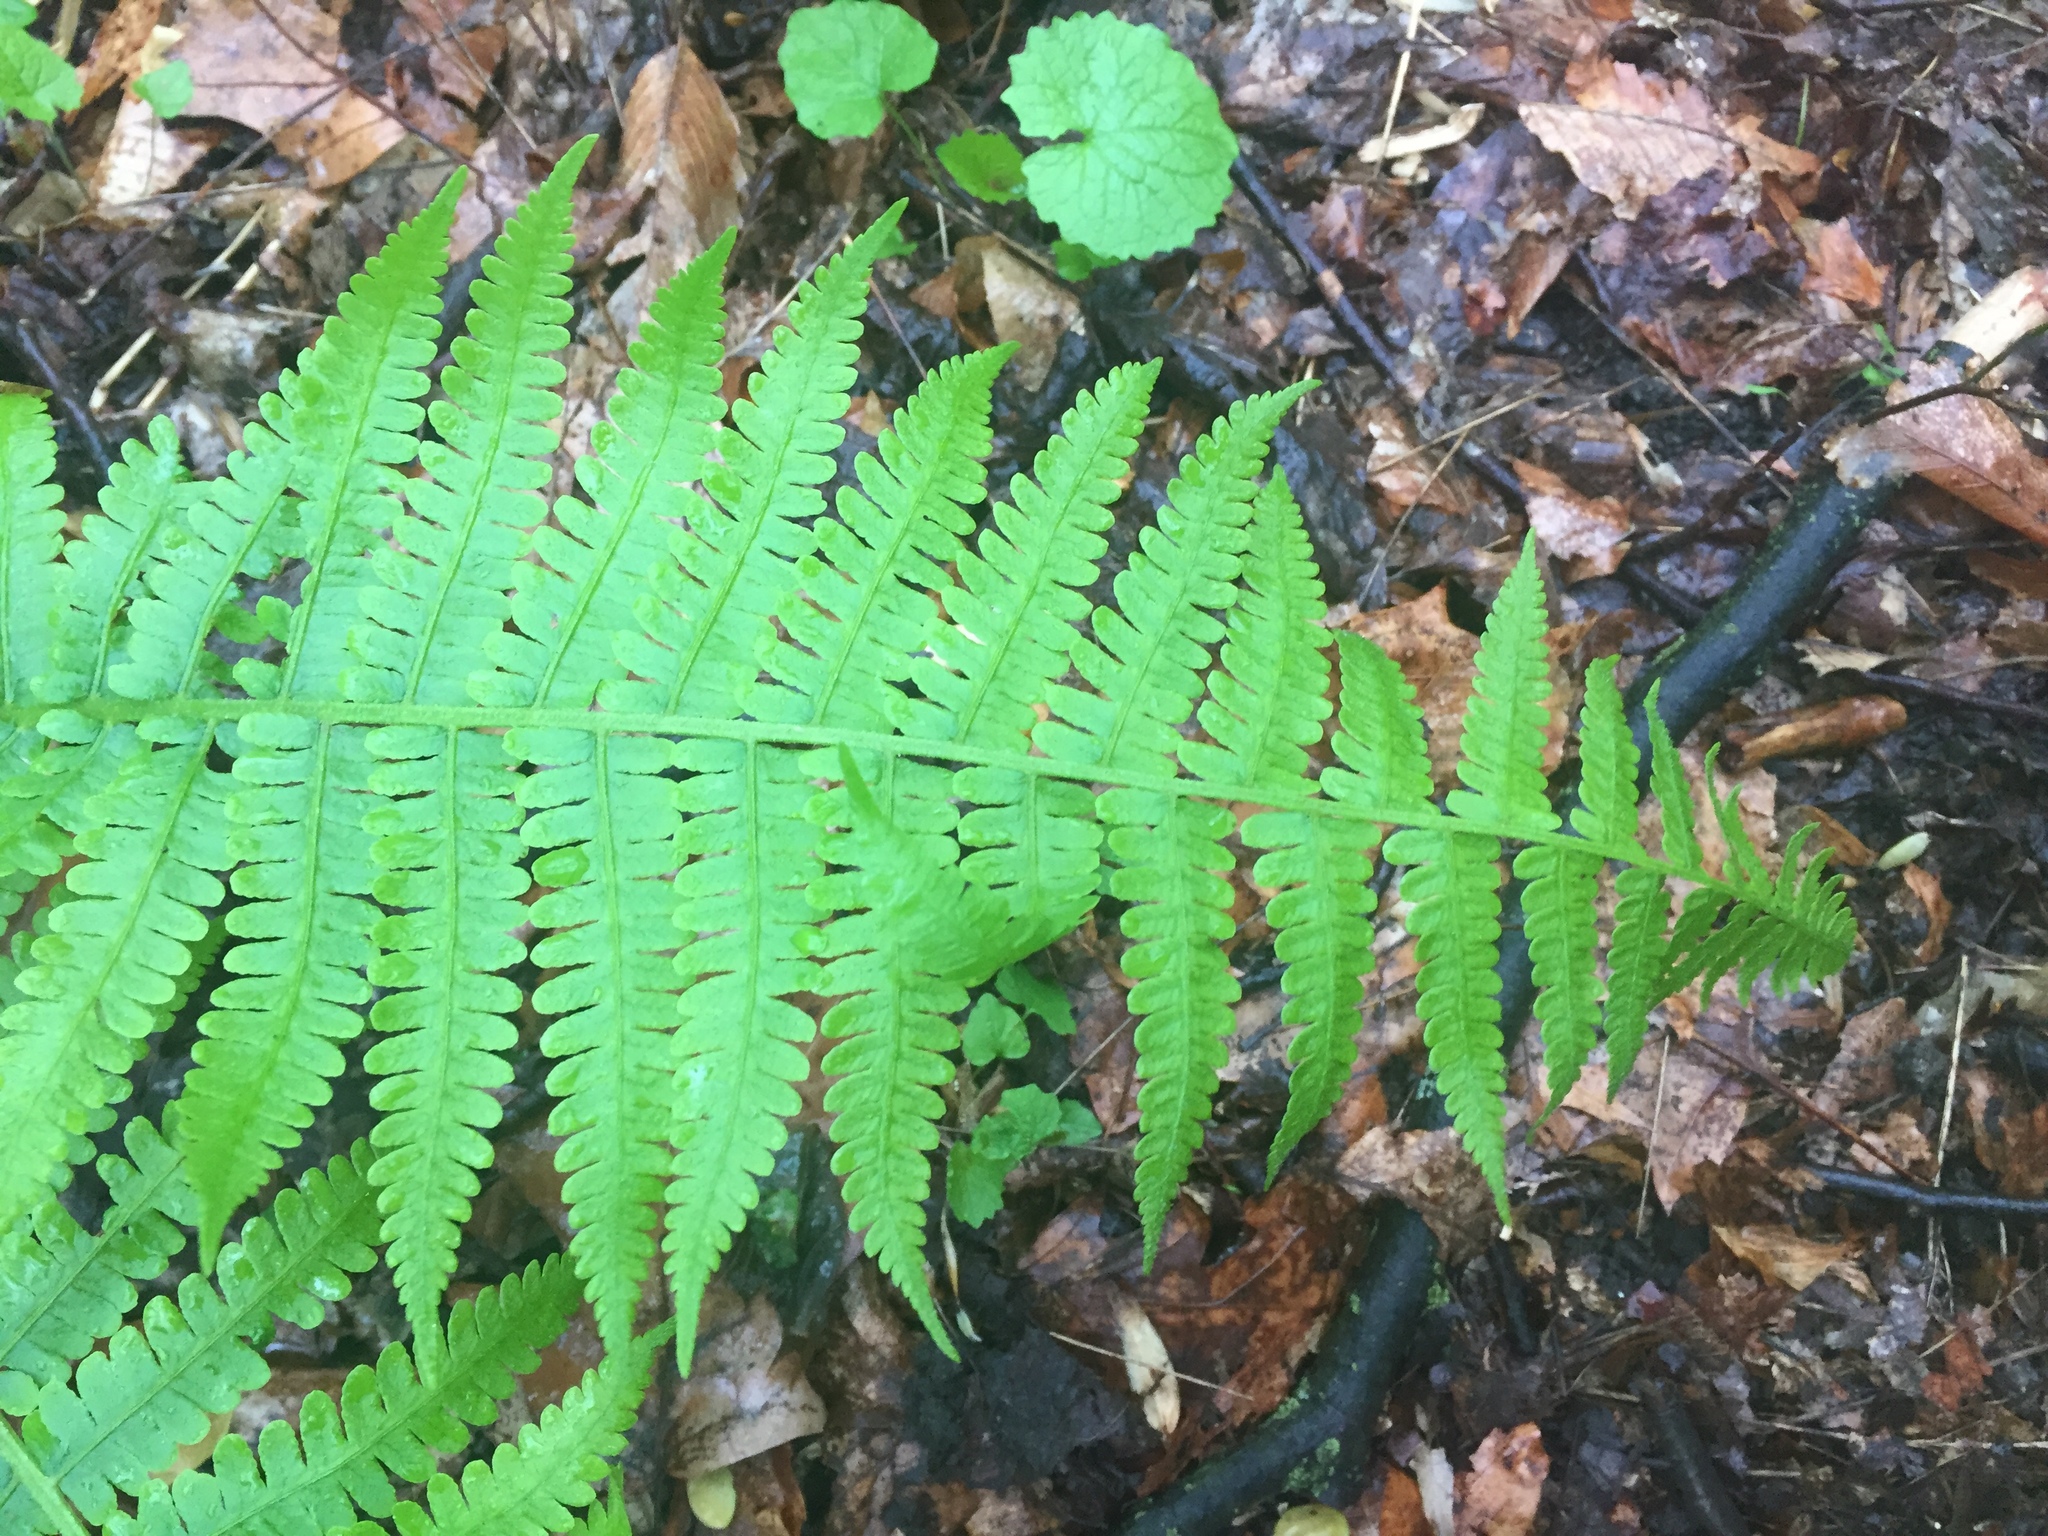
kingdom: Plantae
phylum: Tracheophyta
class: Polypodiopsida
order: Polypodiales
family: Athyriaceae
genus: Deparia
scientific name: Deparia acrostichoides
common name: Silver false spleenwort
